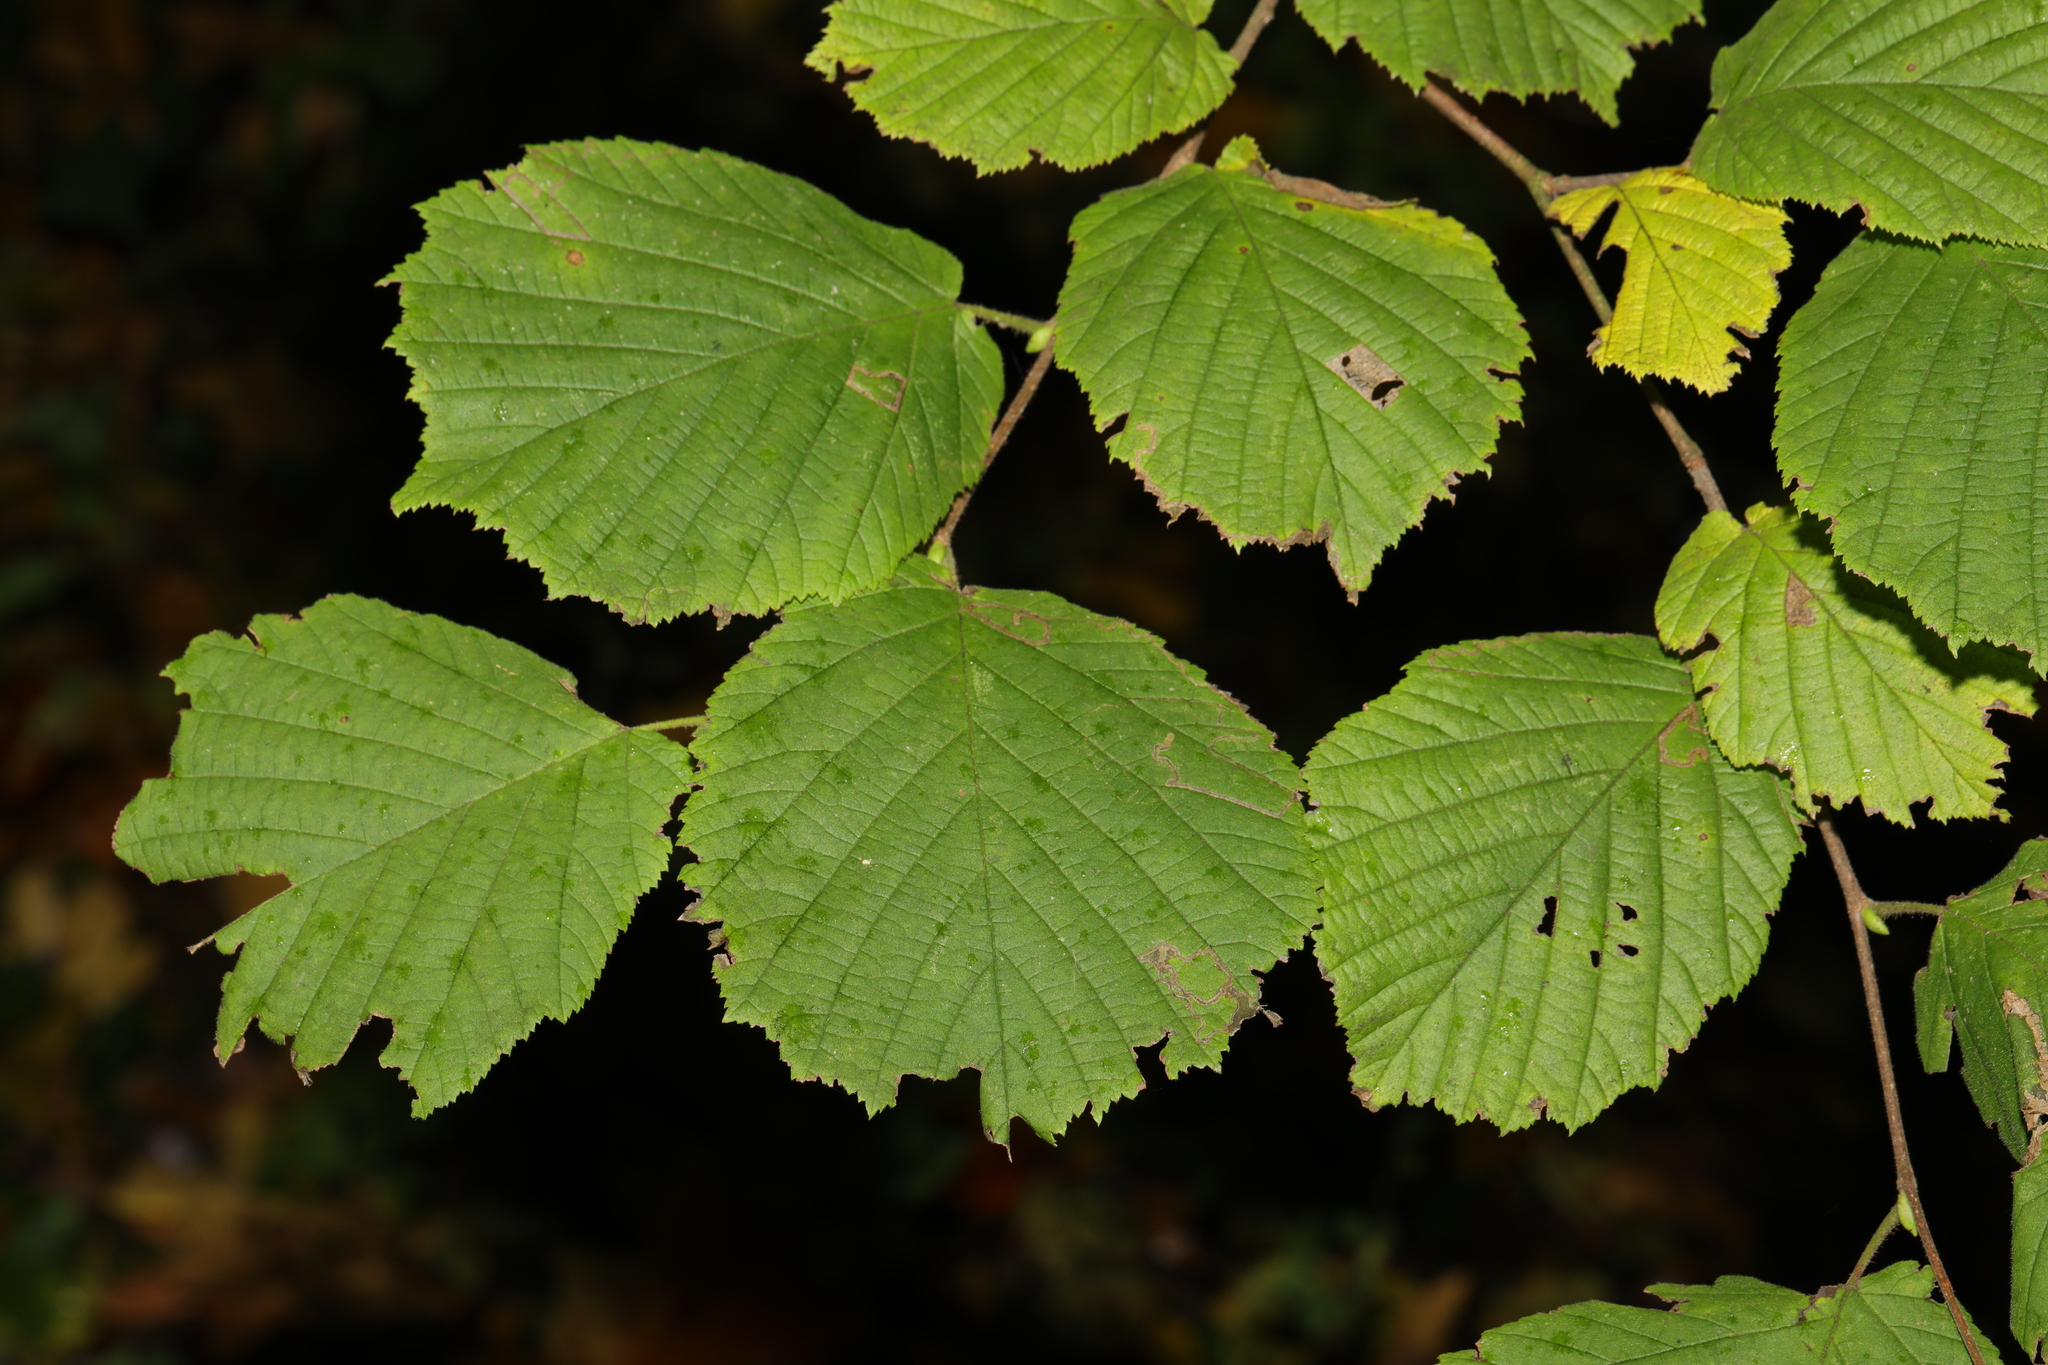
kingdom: Plantae
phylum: Tracheophyta
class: Magnoliopsida
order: Fagales
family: Betulaceae
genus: Corylus
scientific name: Corylus avellana
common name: European hazel
